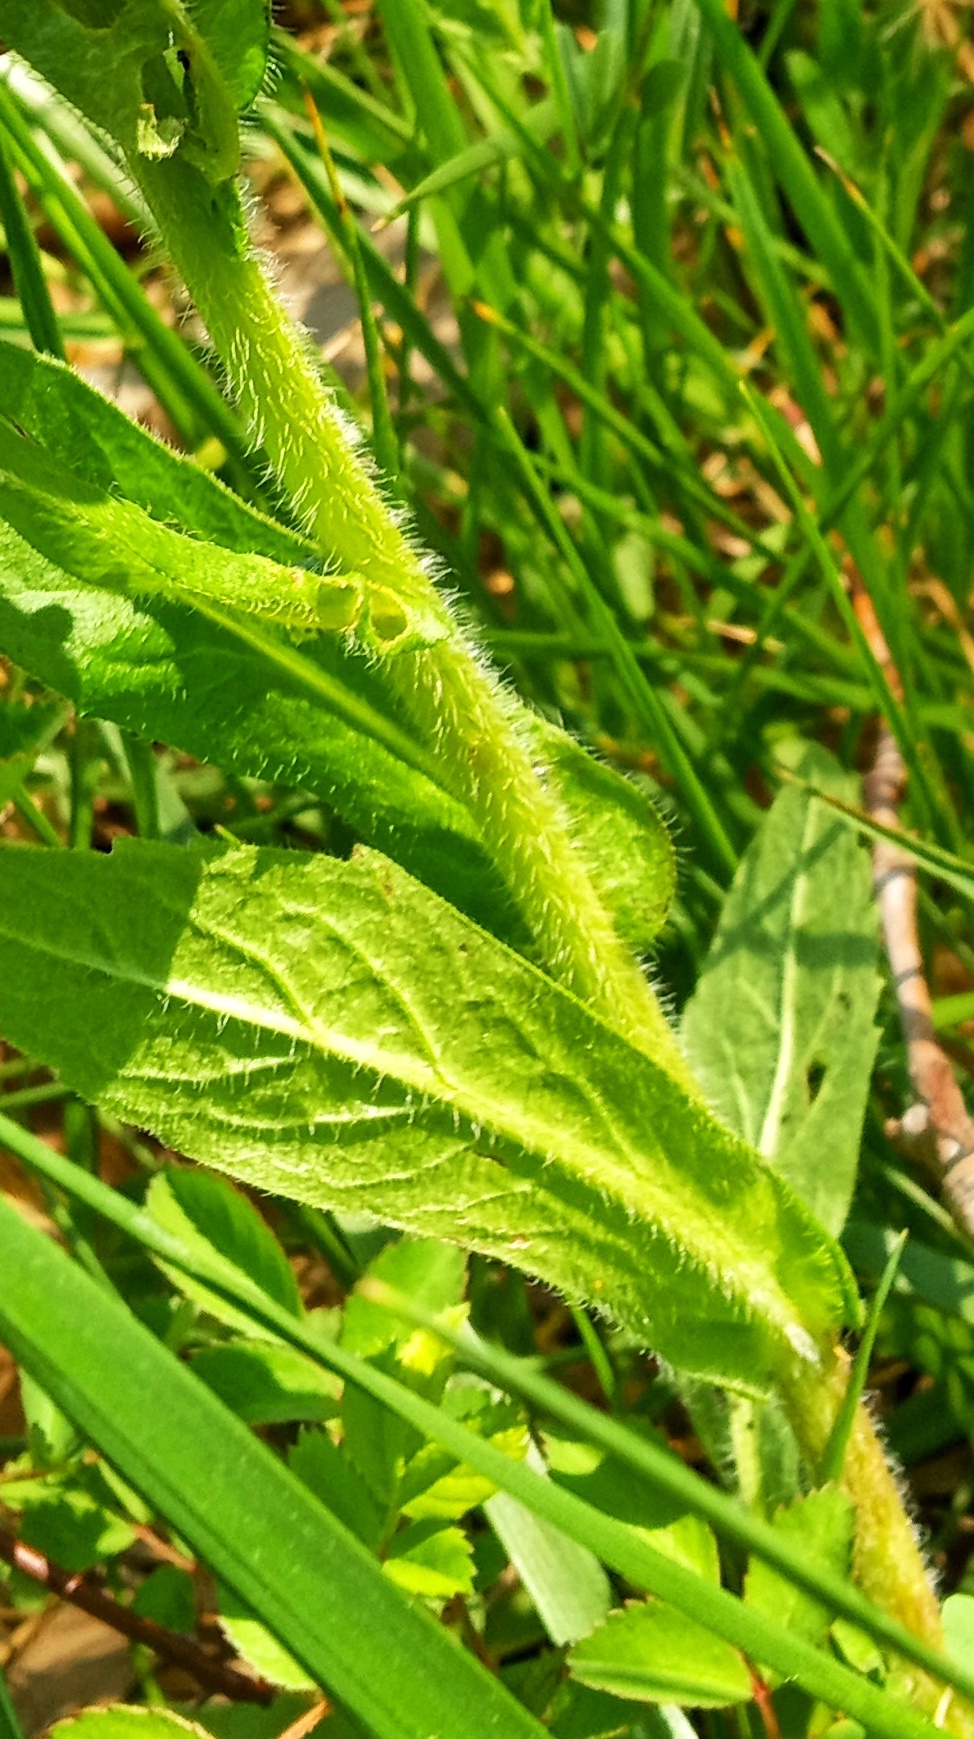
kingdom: Plantae
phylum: Tracheophyta
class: Magnoliopsida
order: Asterales
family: Asteraceae
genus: Erigeron
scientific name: Erigeron philadelphicus
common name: Robin's-plantain
